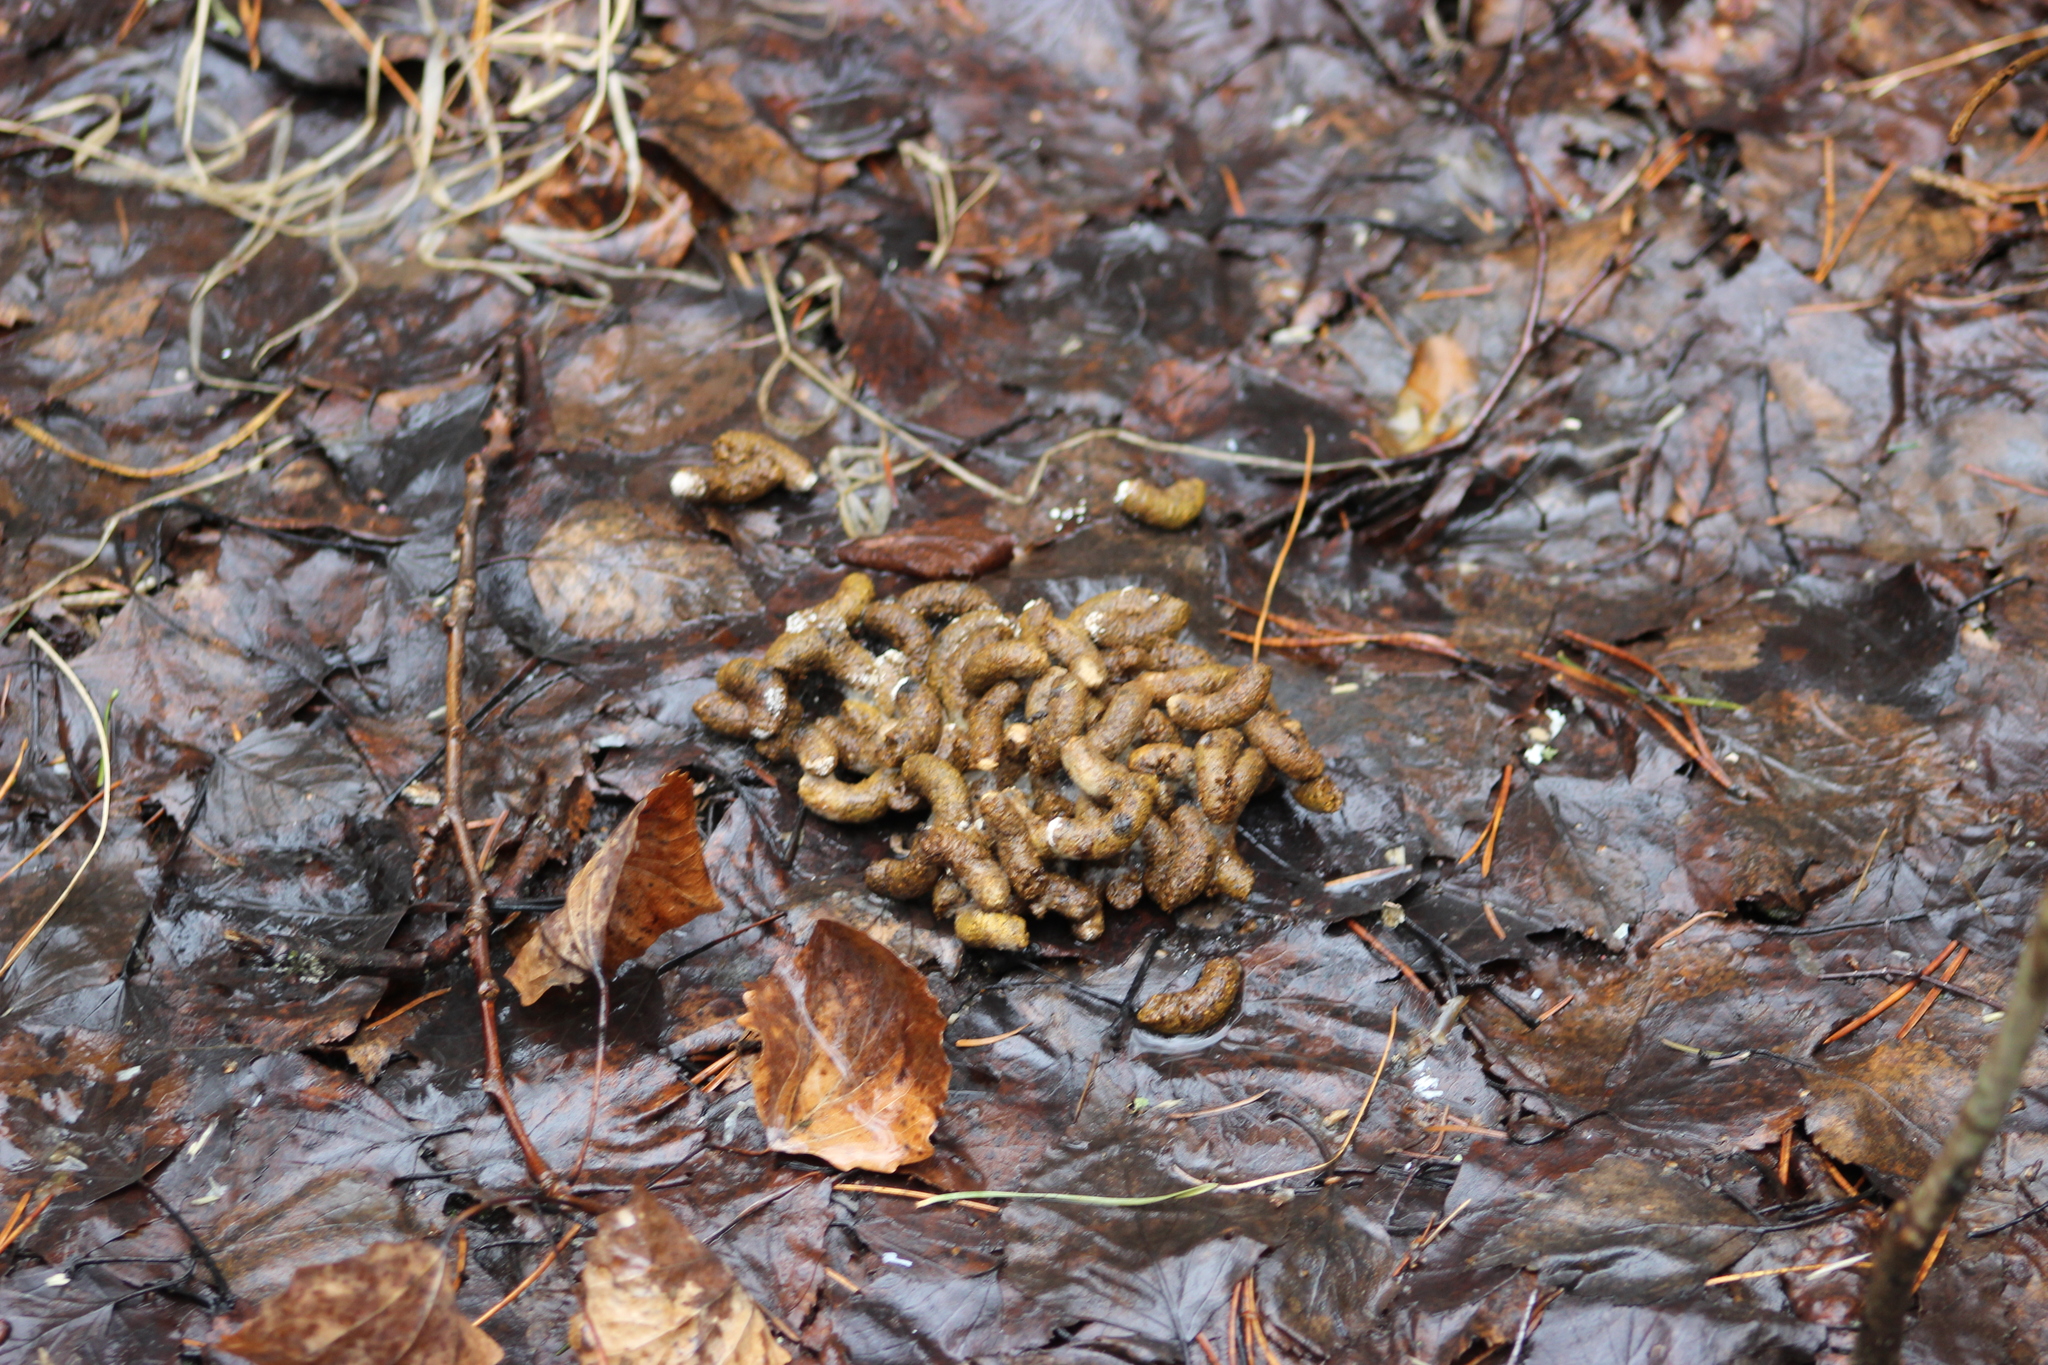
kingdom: Animalia
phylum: Chordata
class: Aves
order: Galliformes
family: Phasianidae
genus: Tetrastes
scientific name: Tetrastes bonasia
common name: Hazel grouse
